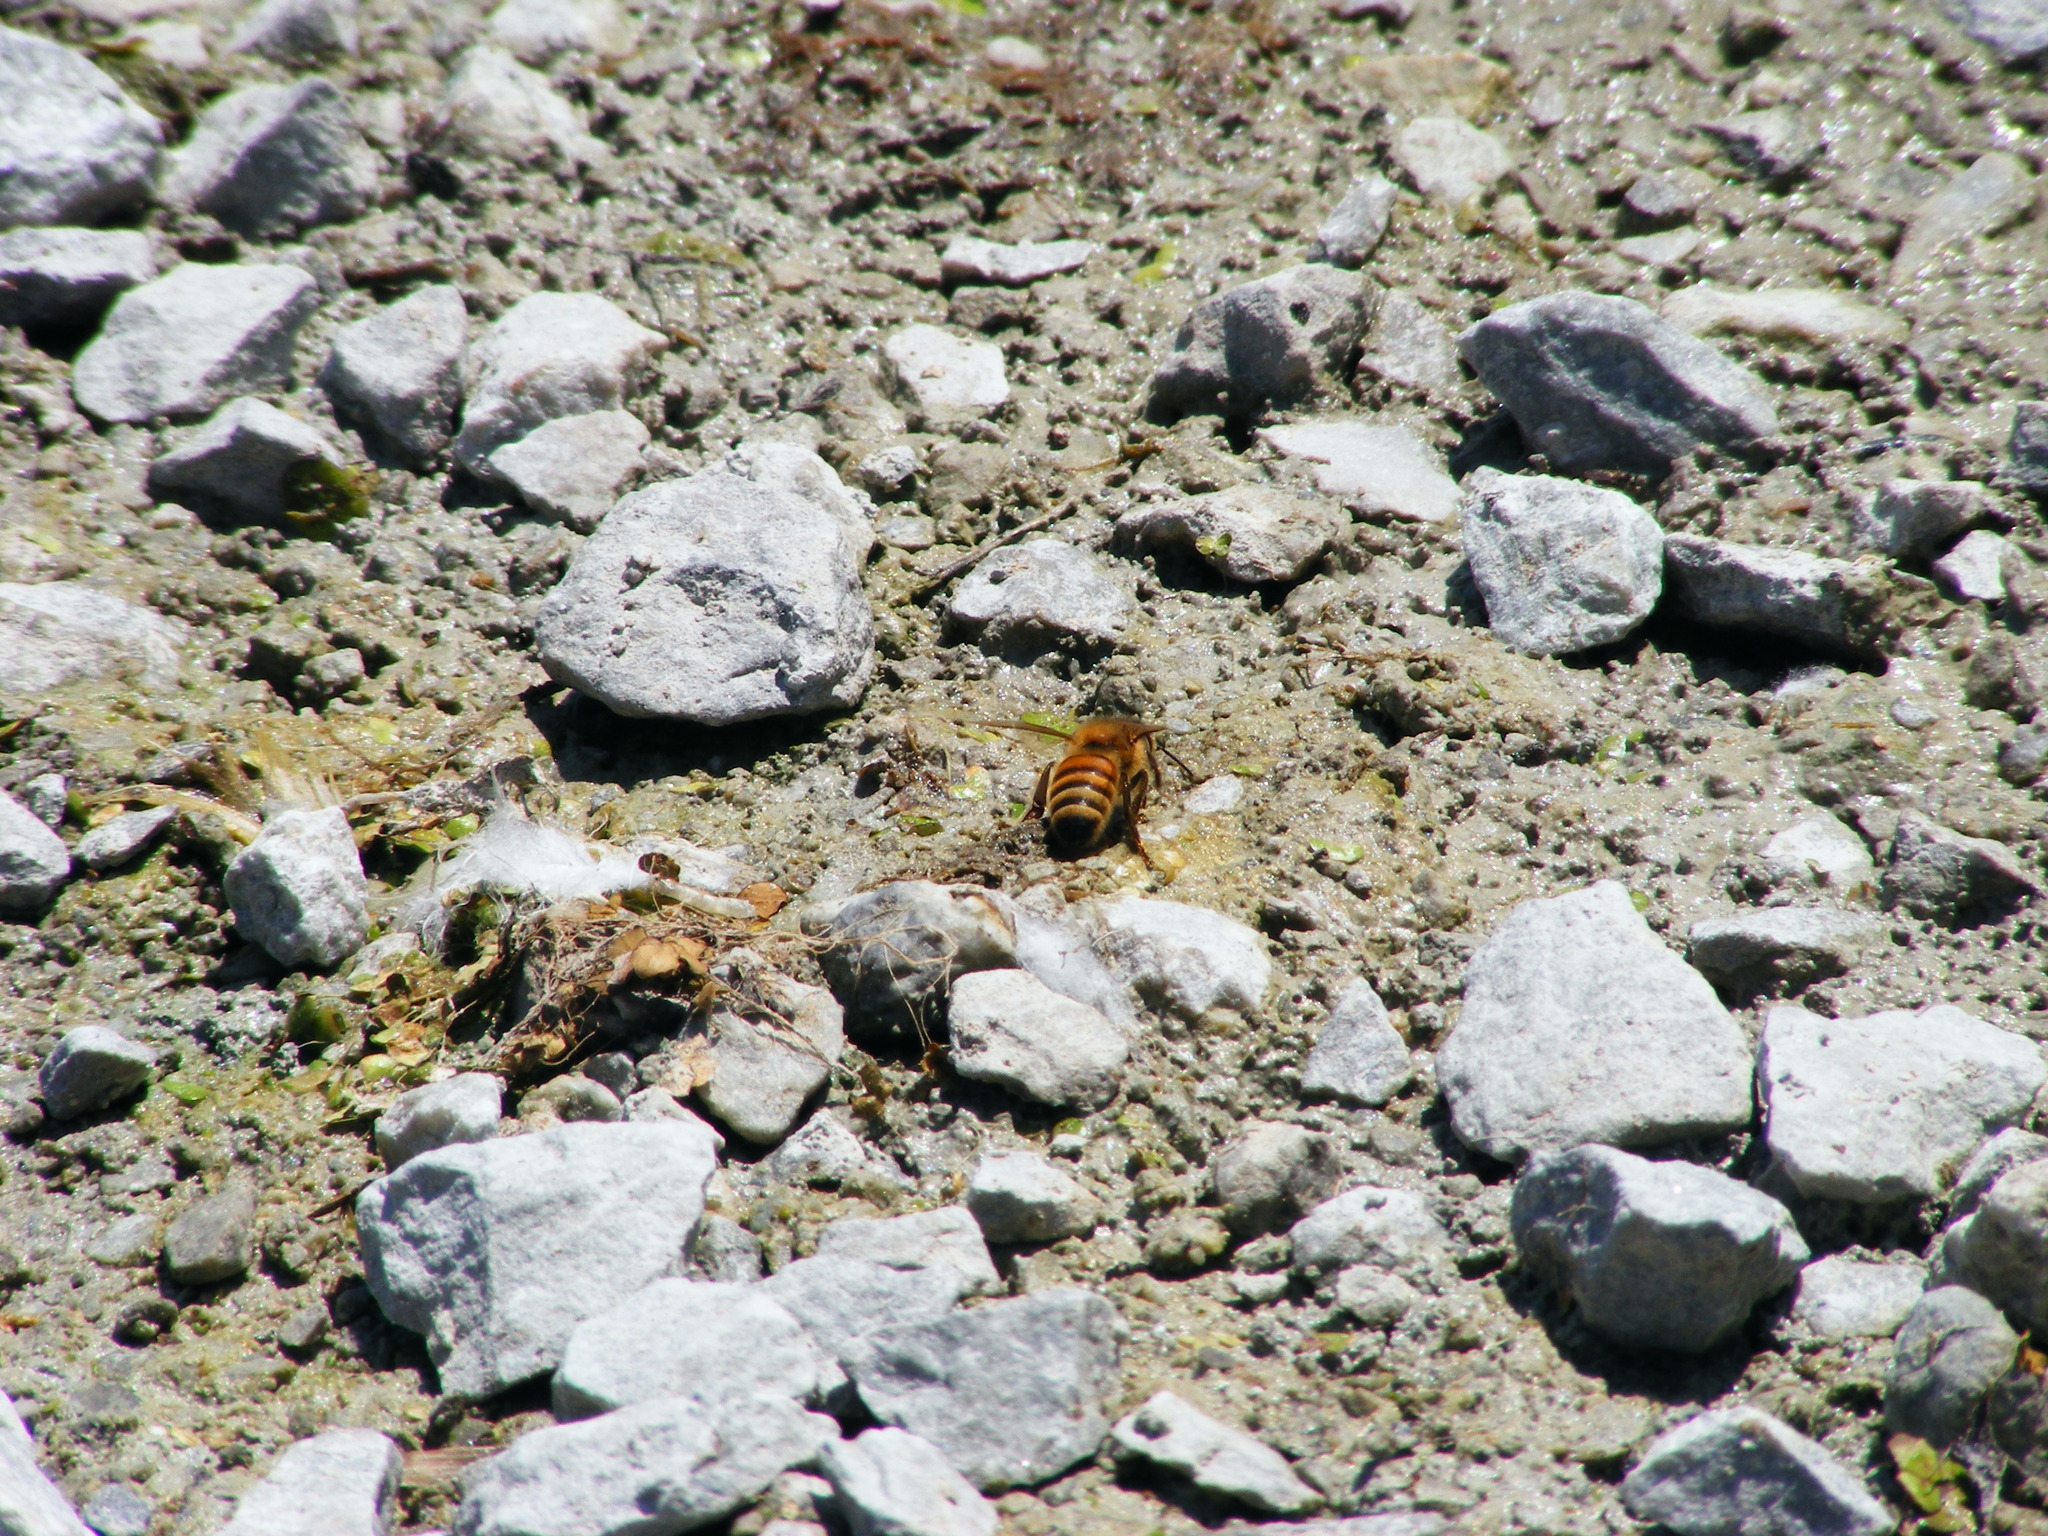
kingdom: Animalia
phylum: Arthropoda
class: Insecta
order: Hymenoptera
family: Apidae
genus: Apis
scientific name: Apis mellifera
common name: Honey bee
